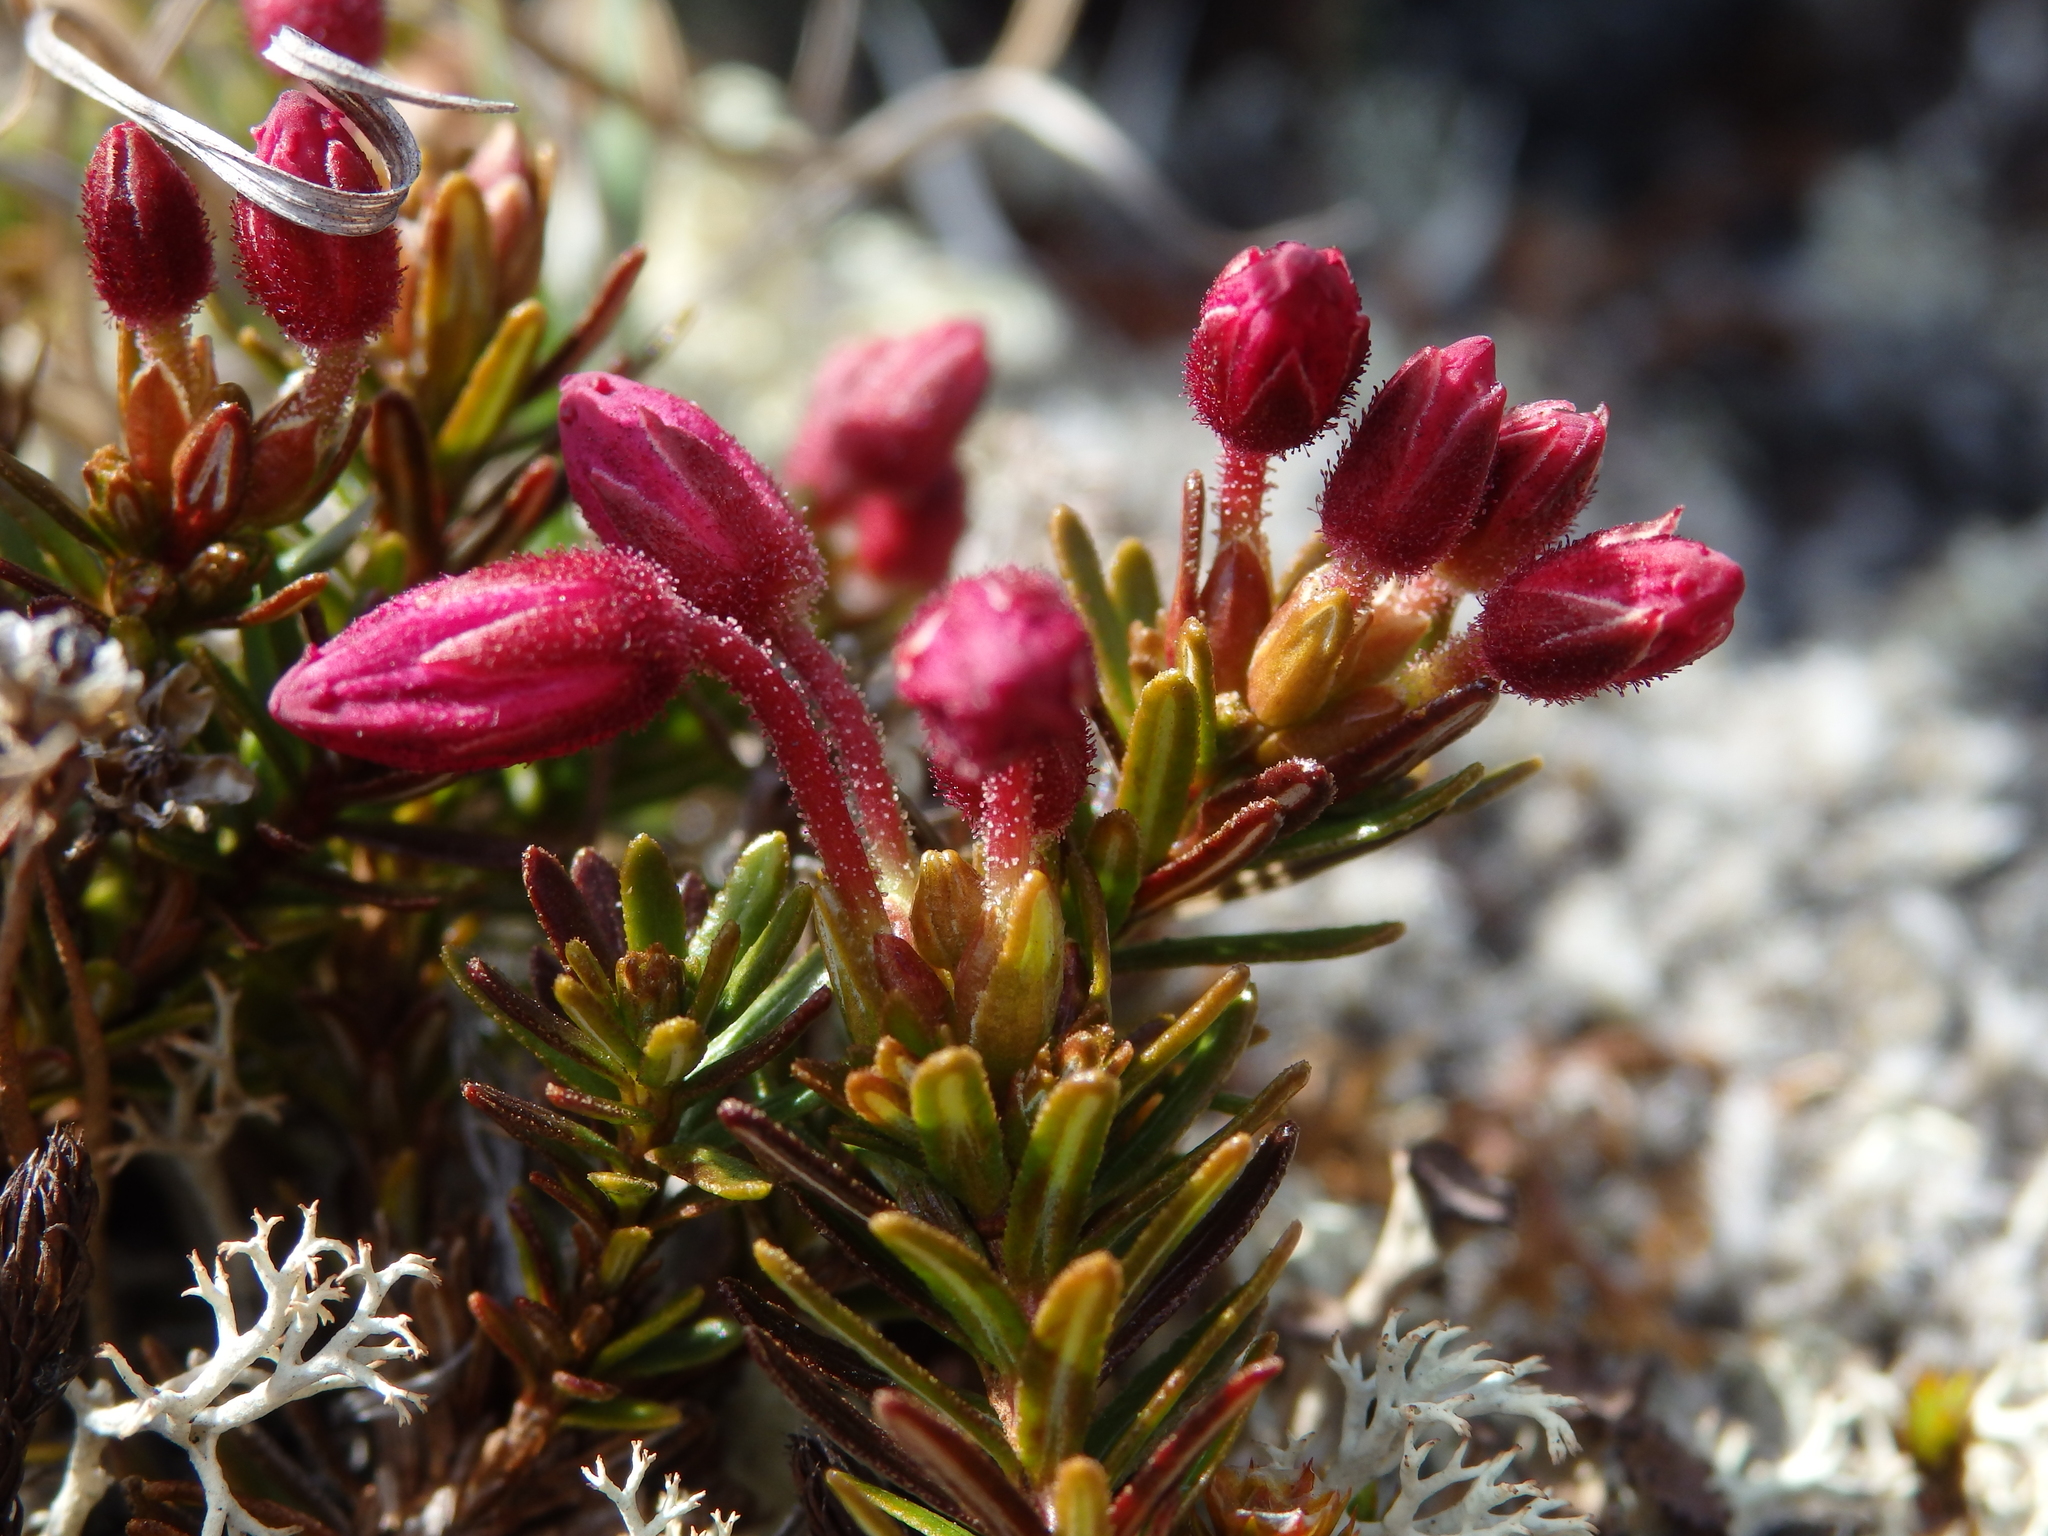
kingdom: Plantae
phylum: Tracheophyta
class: Magnoliopsida
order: Ericales
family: Ericaceae
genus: Phyllodoce
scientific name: Phyllodoce caerulea
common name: Blue heath
